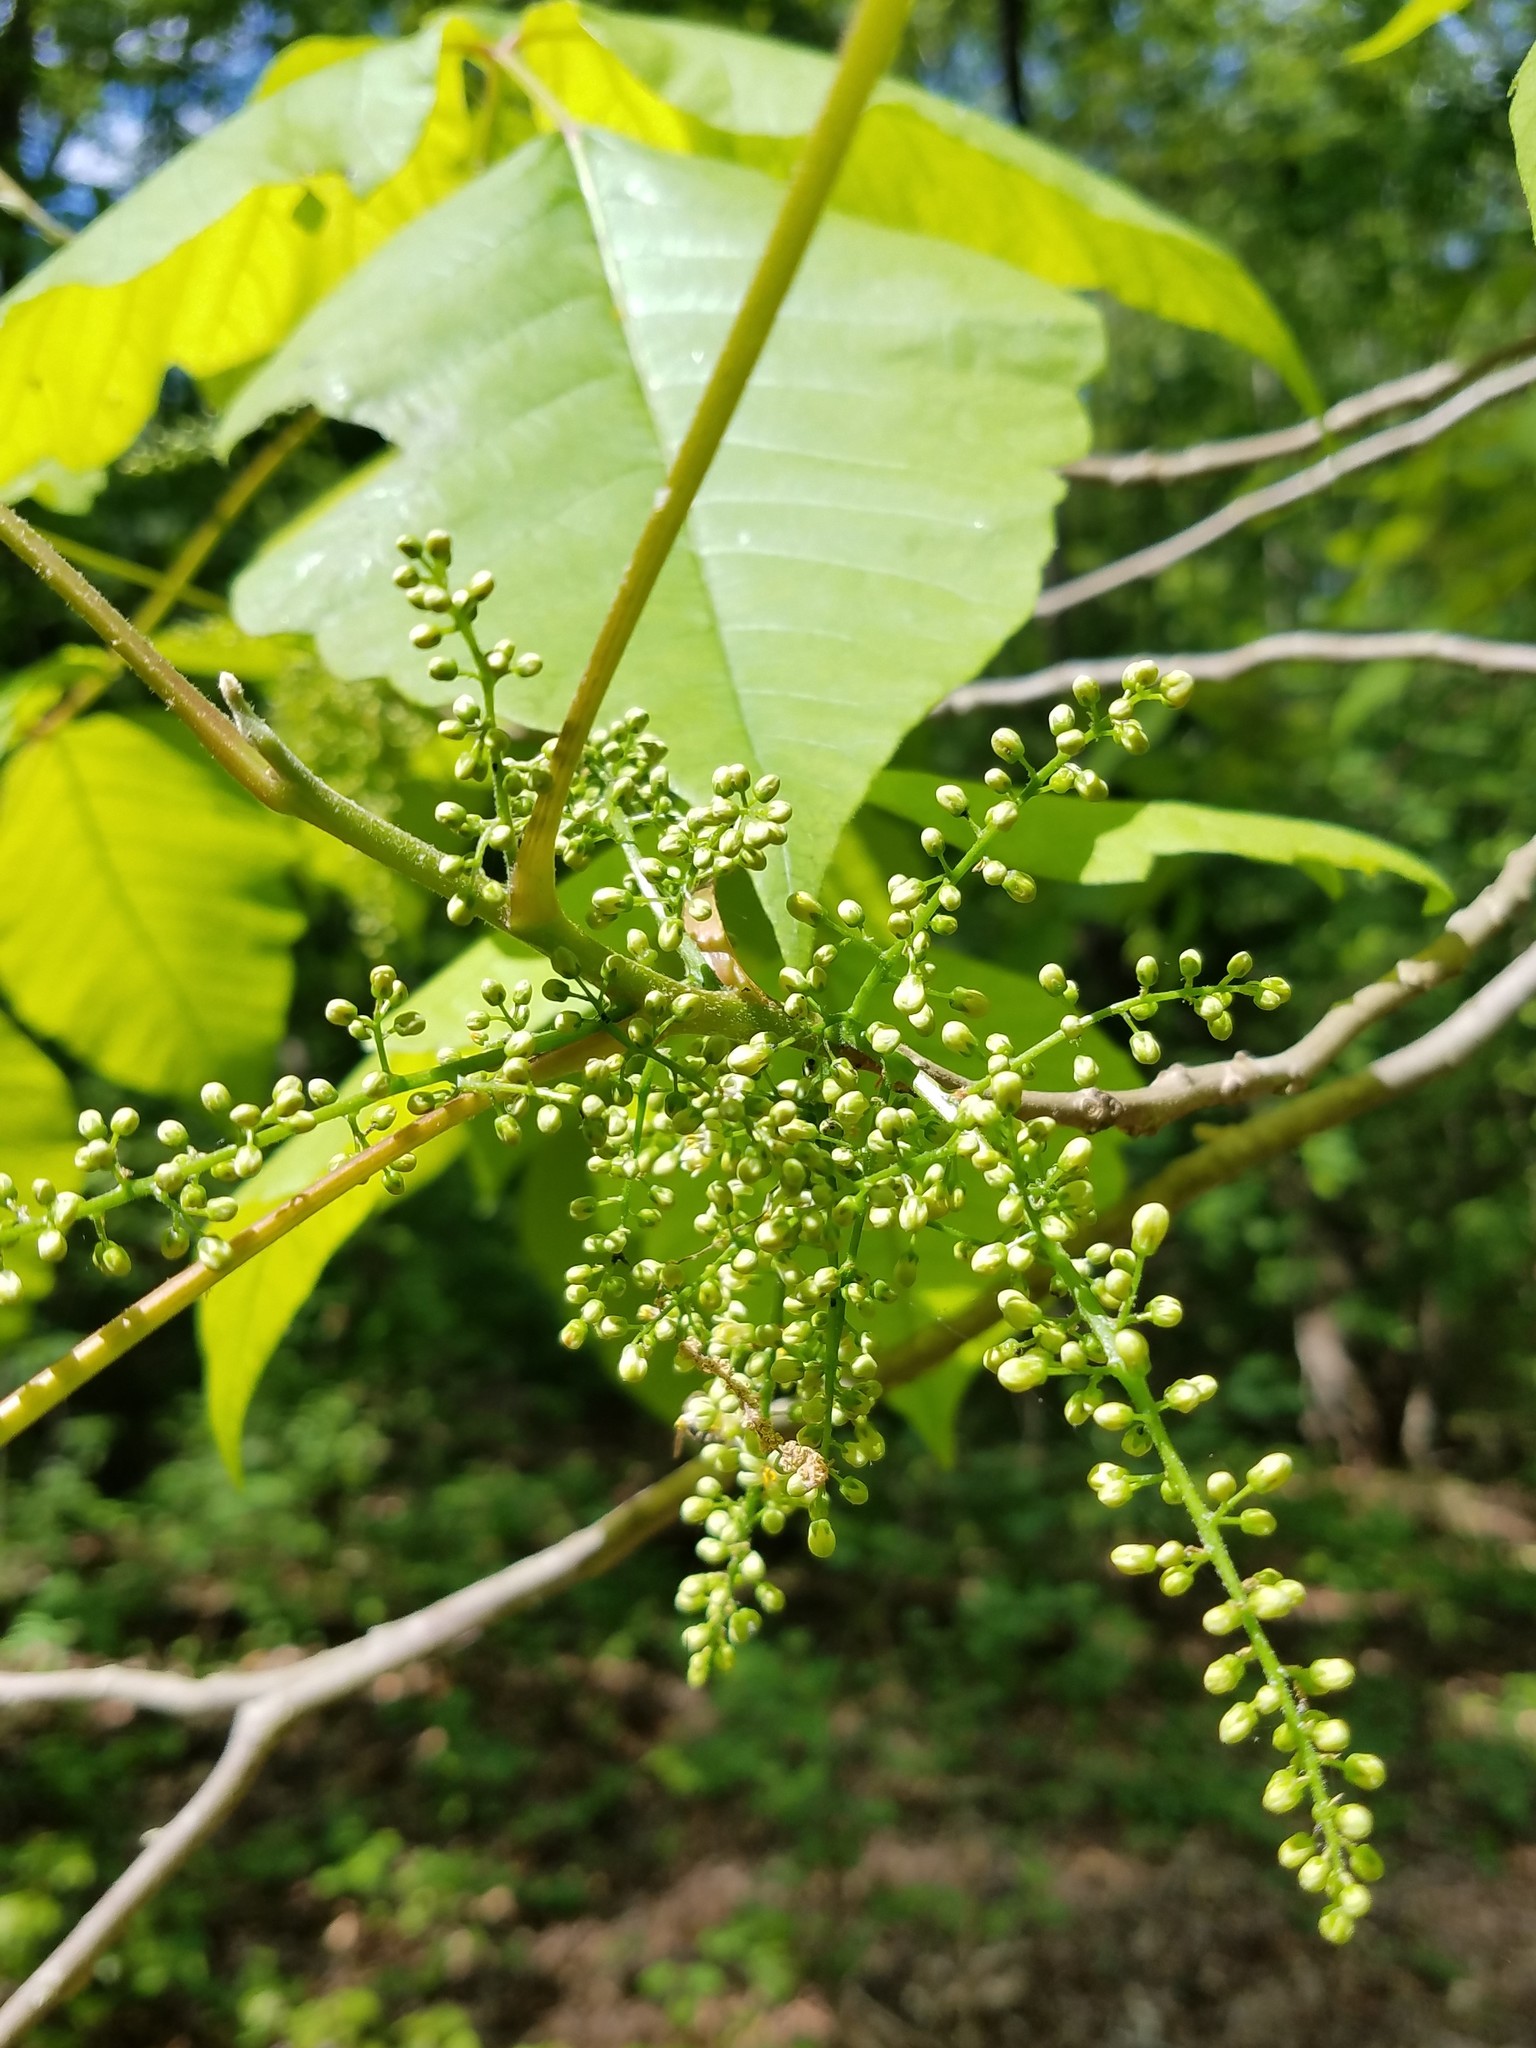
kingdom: Plantae
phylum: Tracheophyta
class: Magnoliopsida
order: Sapindales
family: Anacardiaceae
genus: Toxicodendron
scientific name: Toxicodendron radicans
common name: Poison ivy
